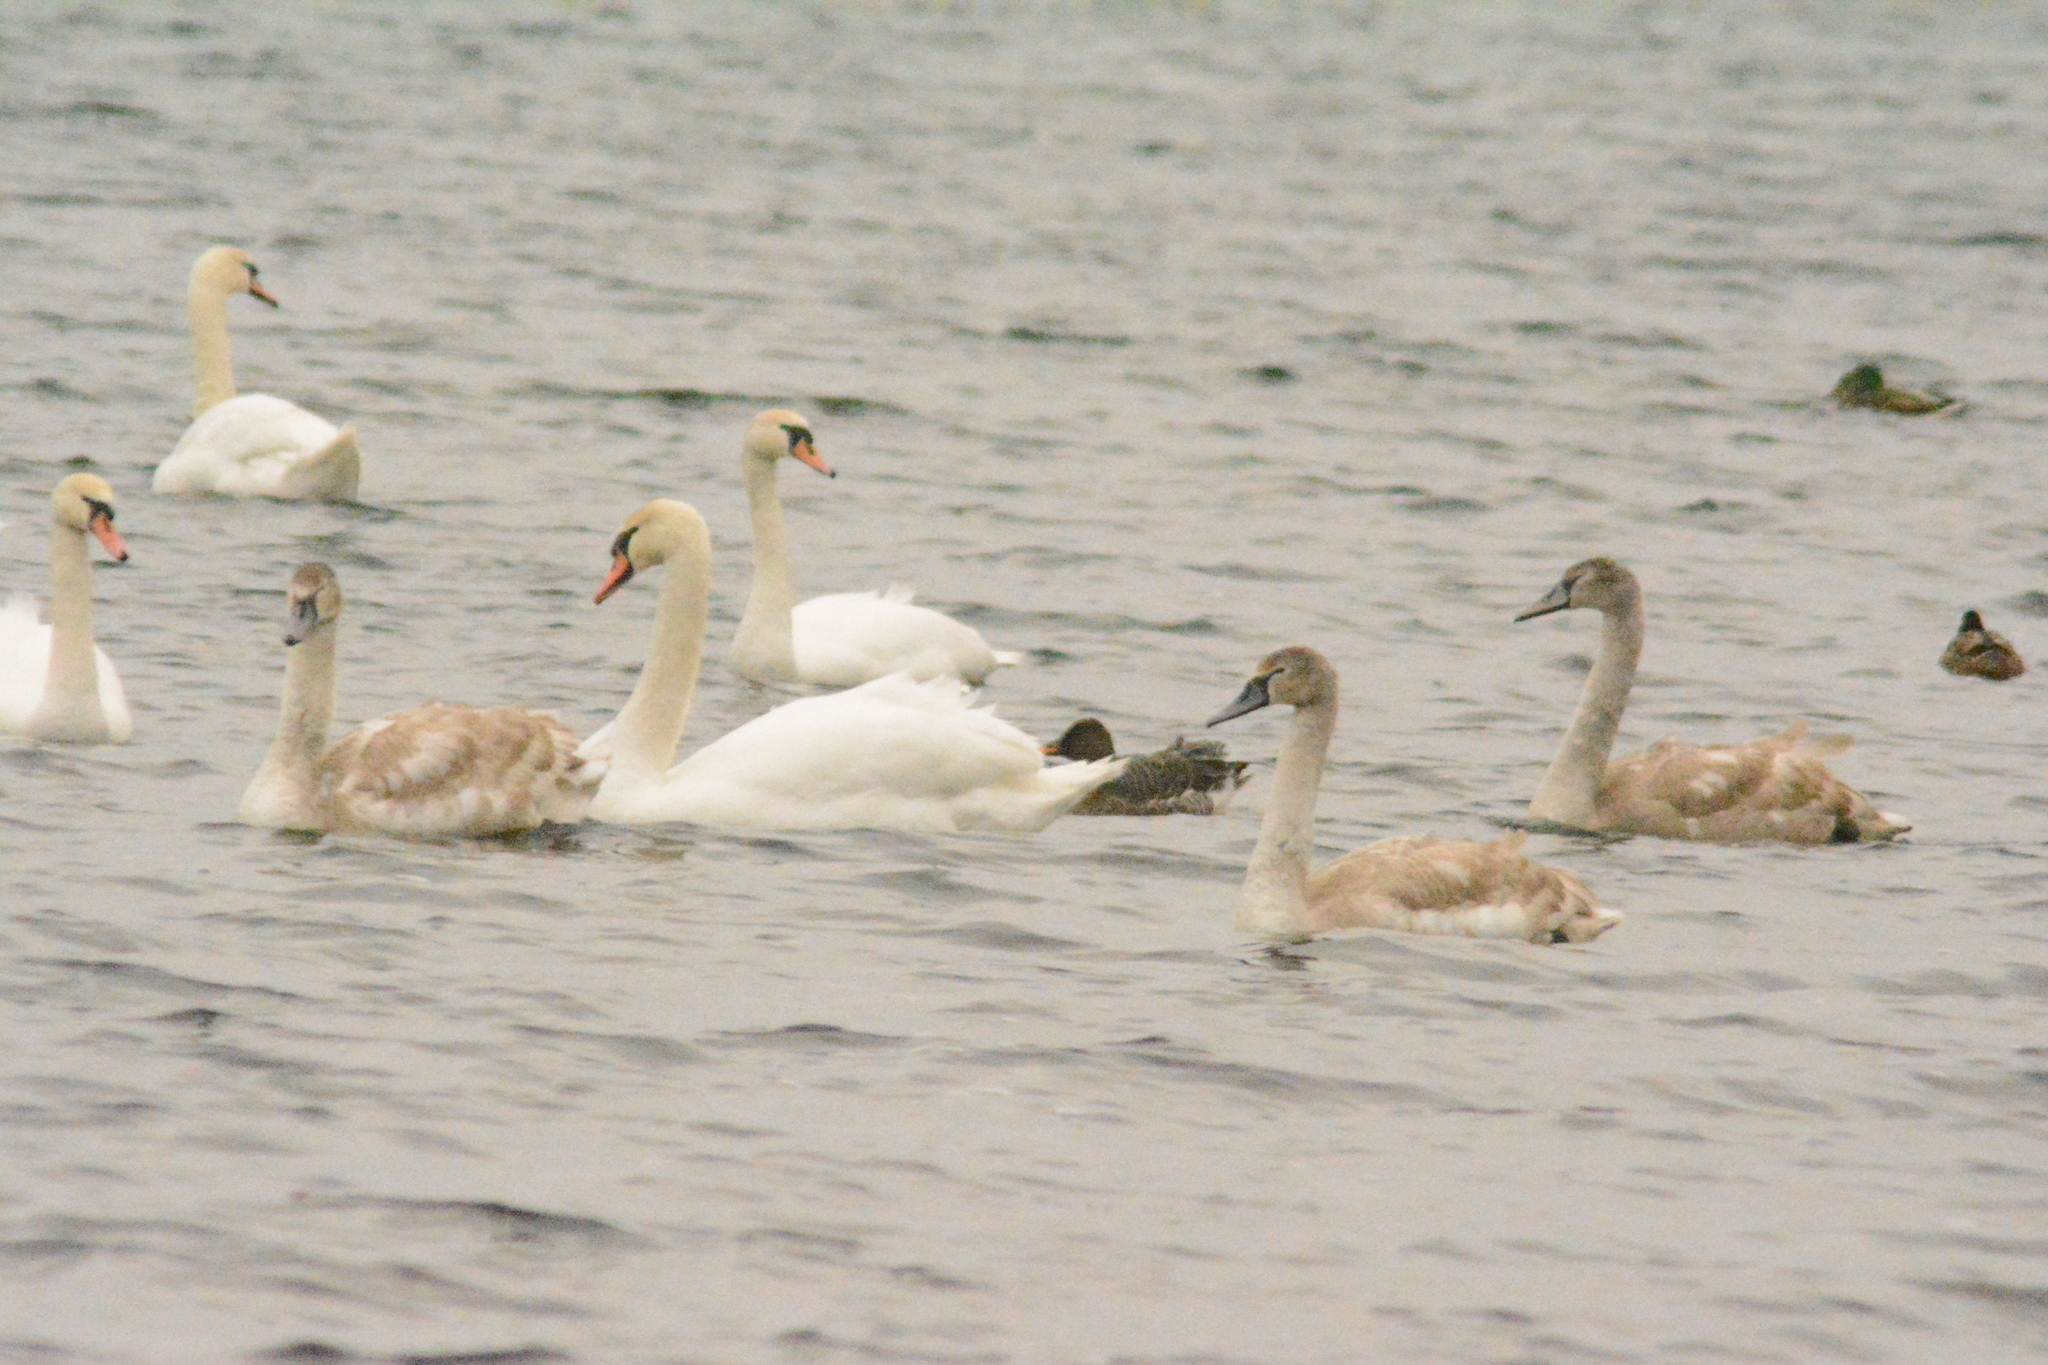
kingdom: Animalia
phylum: Chordata
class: Aves
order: Anseriformes
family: Anatidae
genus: Cygnus
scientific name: Cygnus olor
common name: Mute swan
